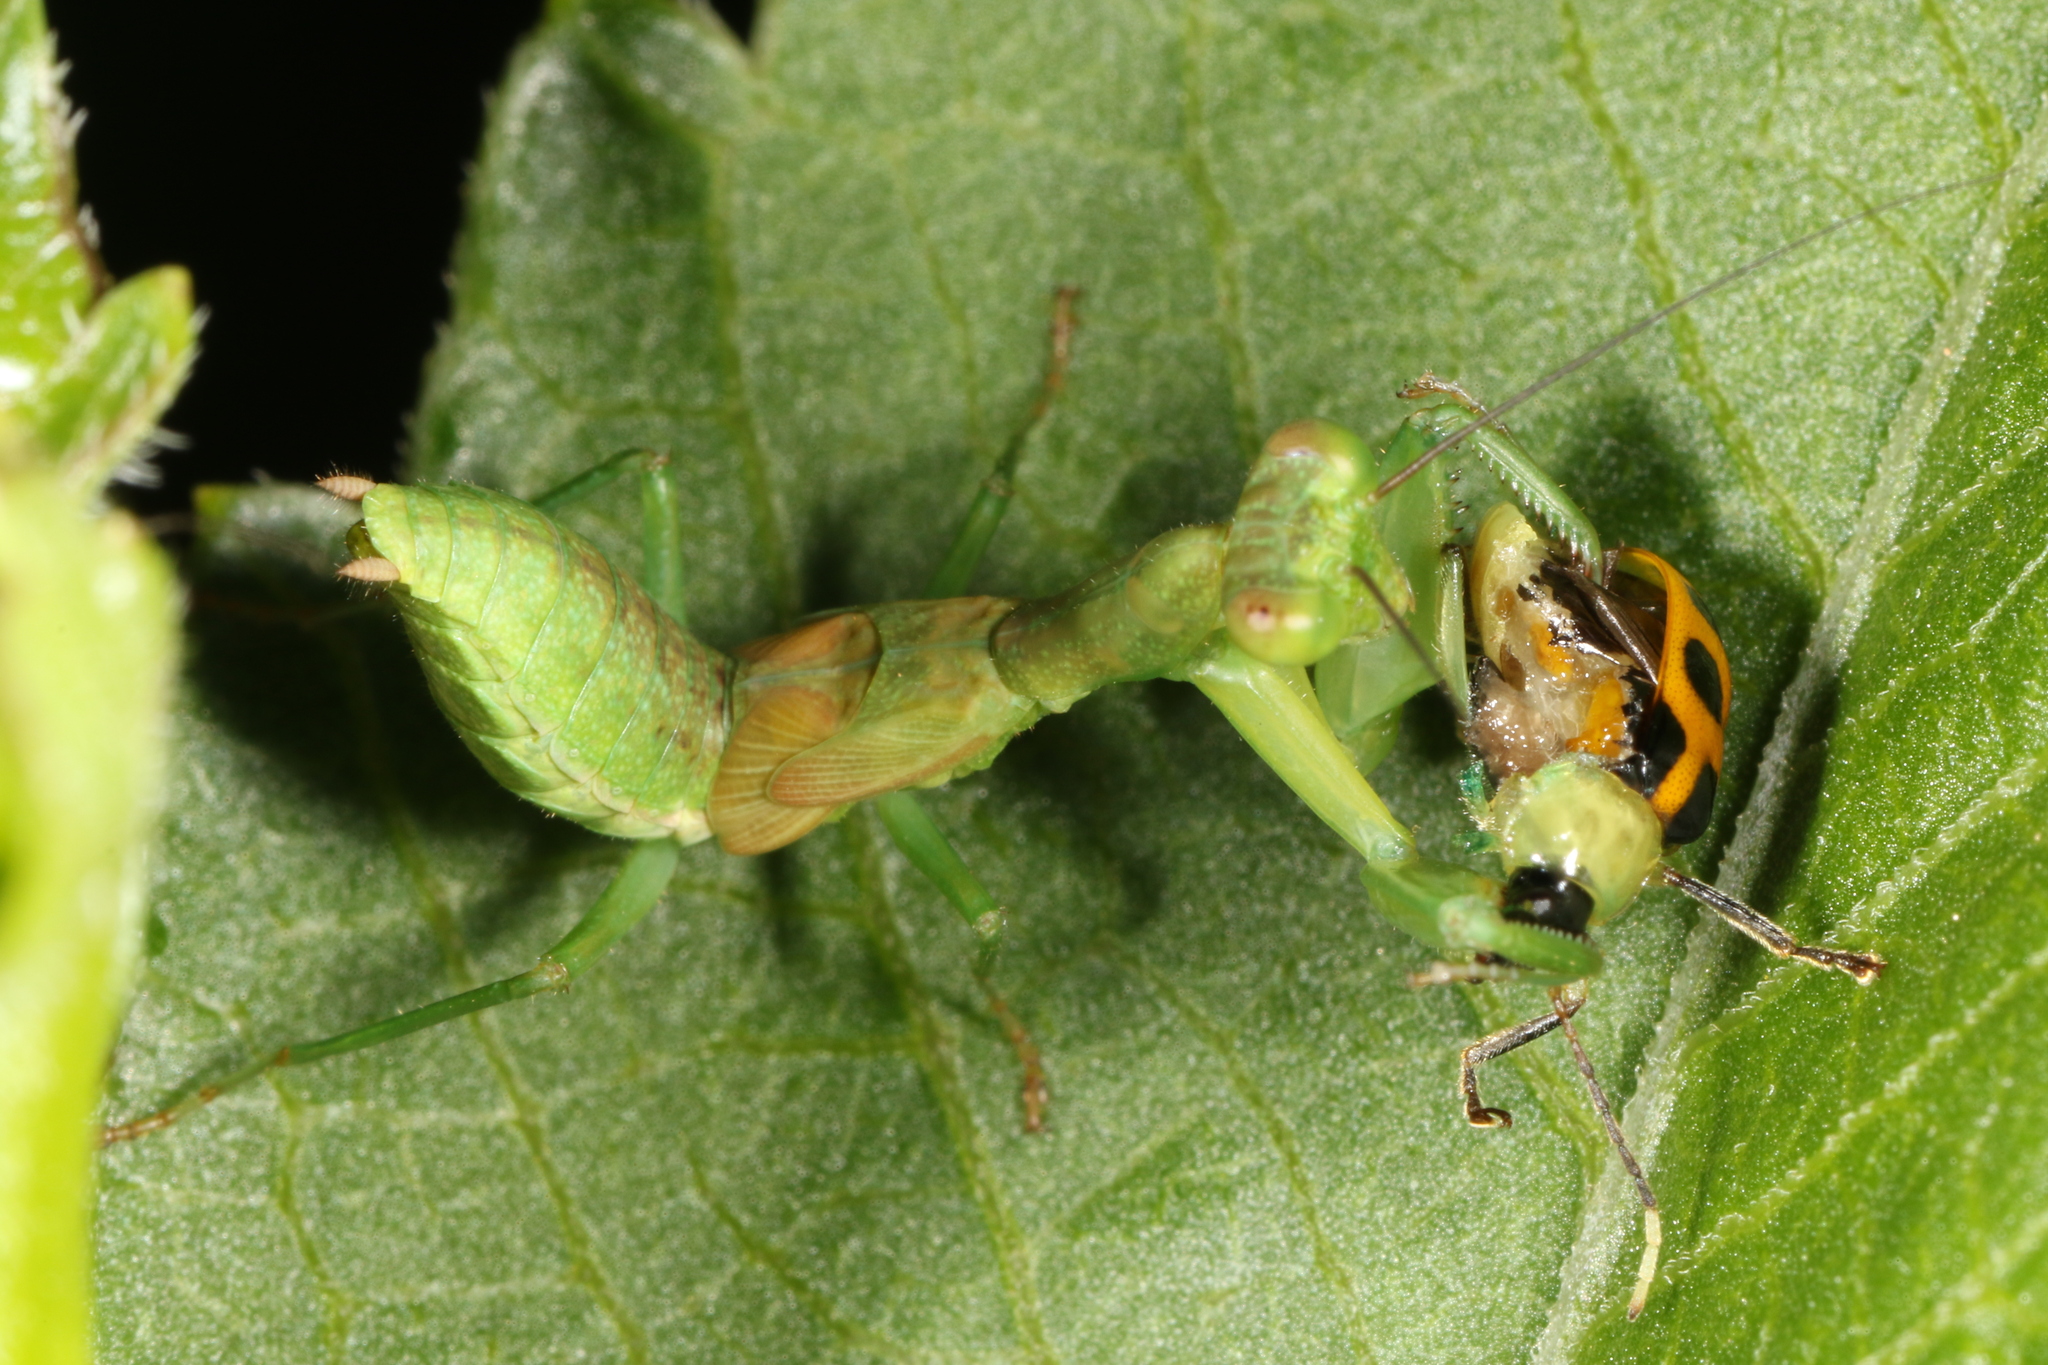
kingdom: Animalia
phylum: Arthropoda
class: Insecta
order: Coleoptera
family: Chrysomelidae
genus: Diabrotica
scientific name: Diabrotica limitata
